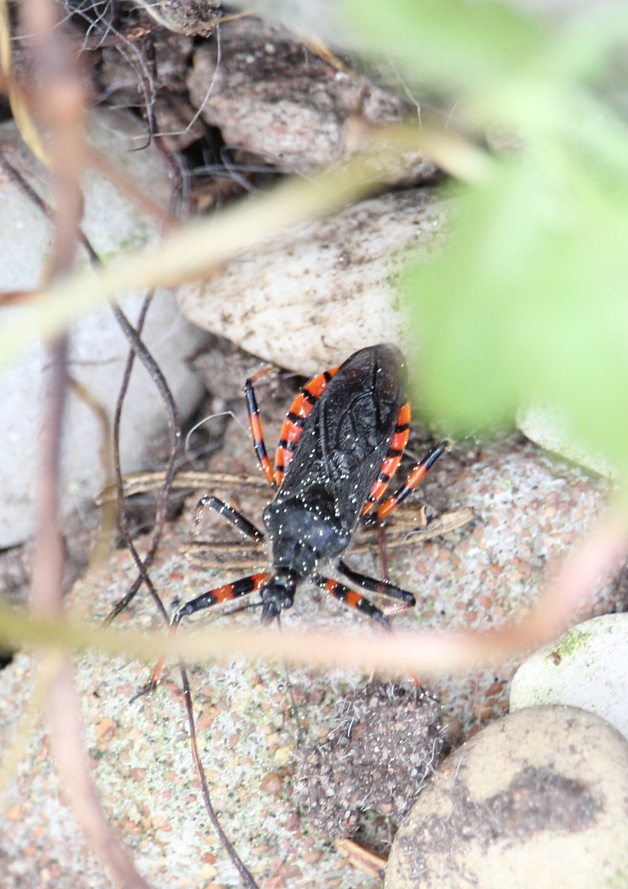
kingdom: Animalia
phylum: Arthropoda
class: Insecta
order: Hemiptera
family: Reduviidae
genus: Rhynocoris
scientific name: Rhynocoris annulatus
